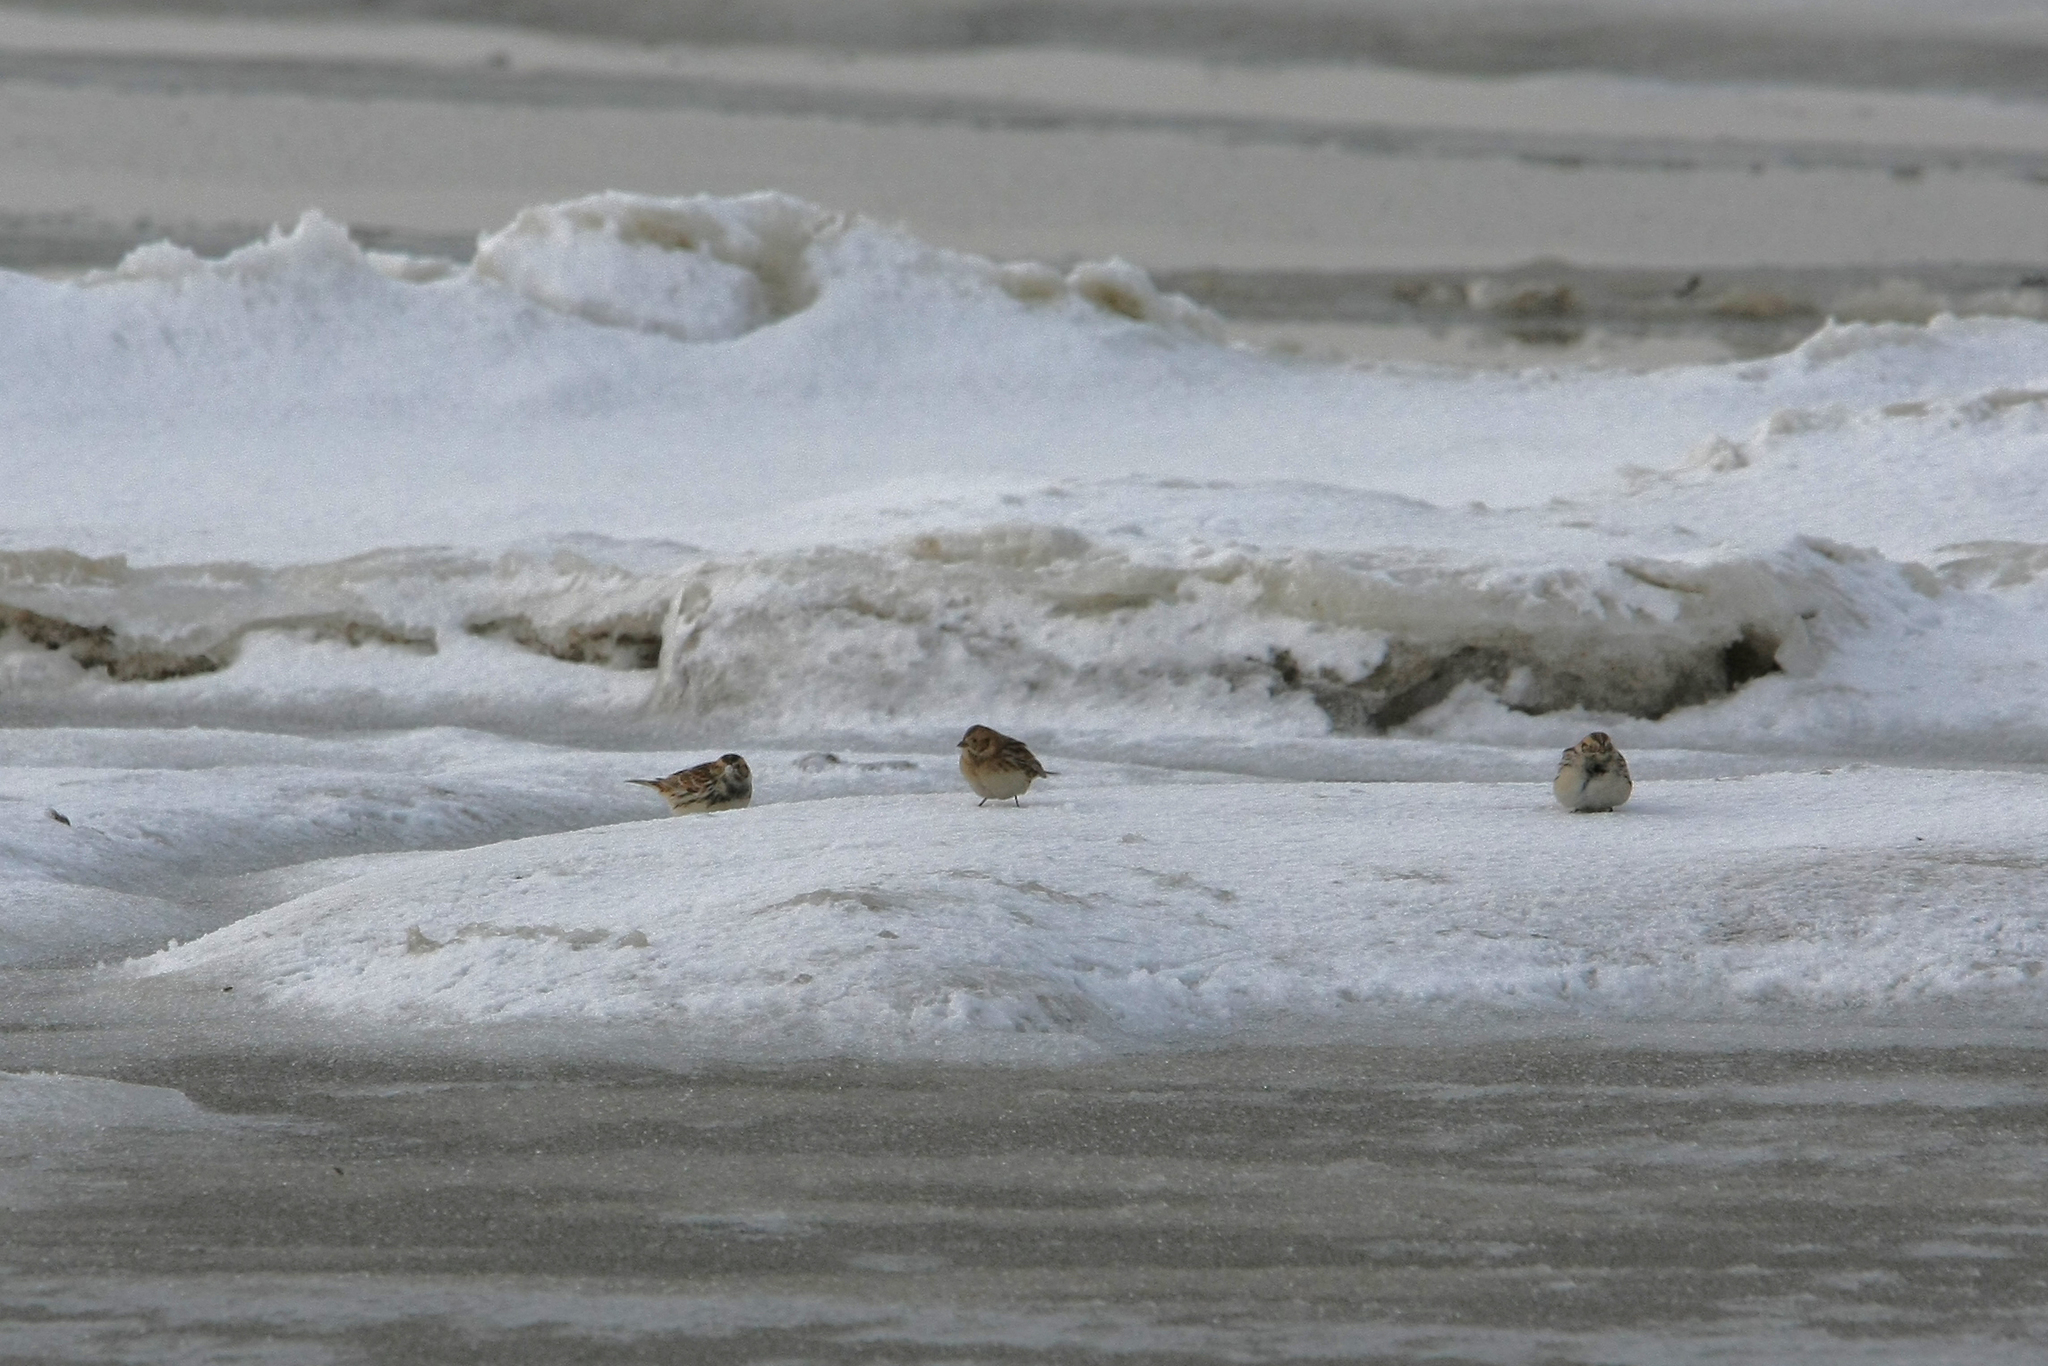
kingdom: Animalia
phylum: Chordata
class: Aves
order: Passeriformes
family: Calcariidae
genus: Calcarius
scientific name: Calcarius lapponicus
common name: Lapland longspur
